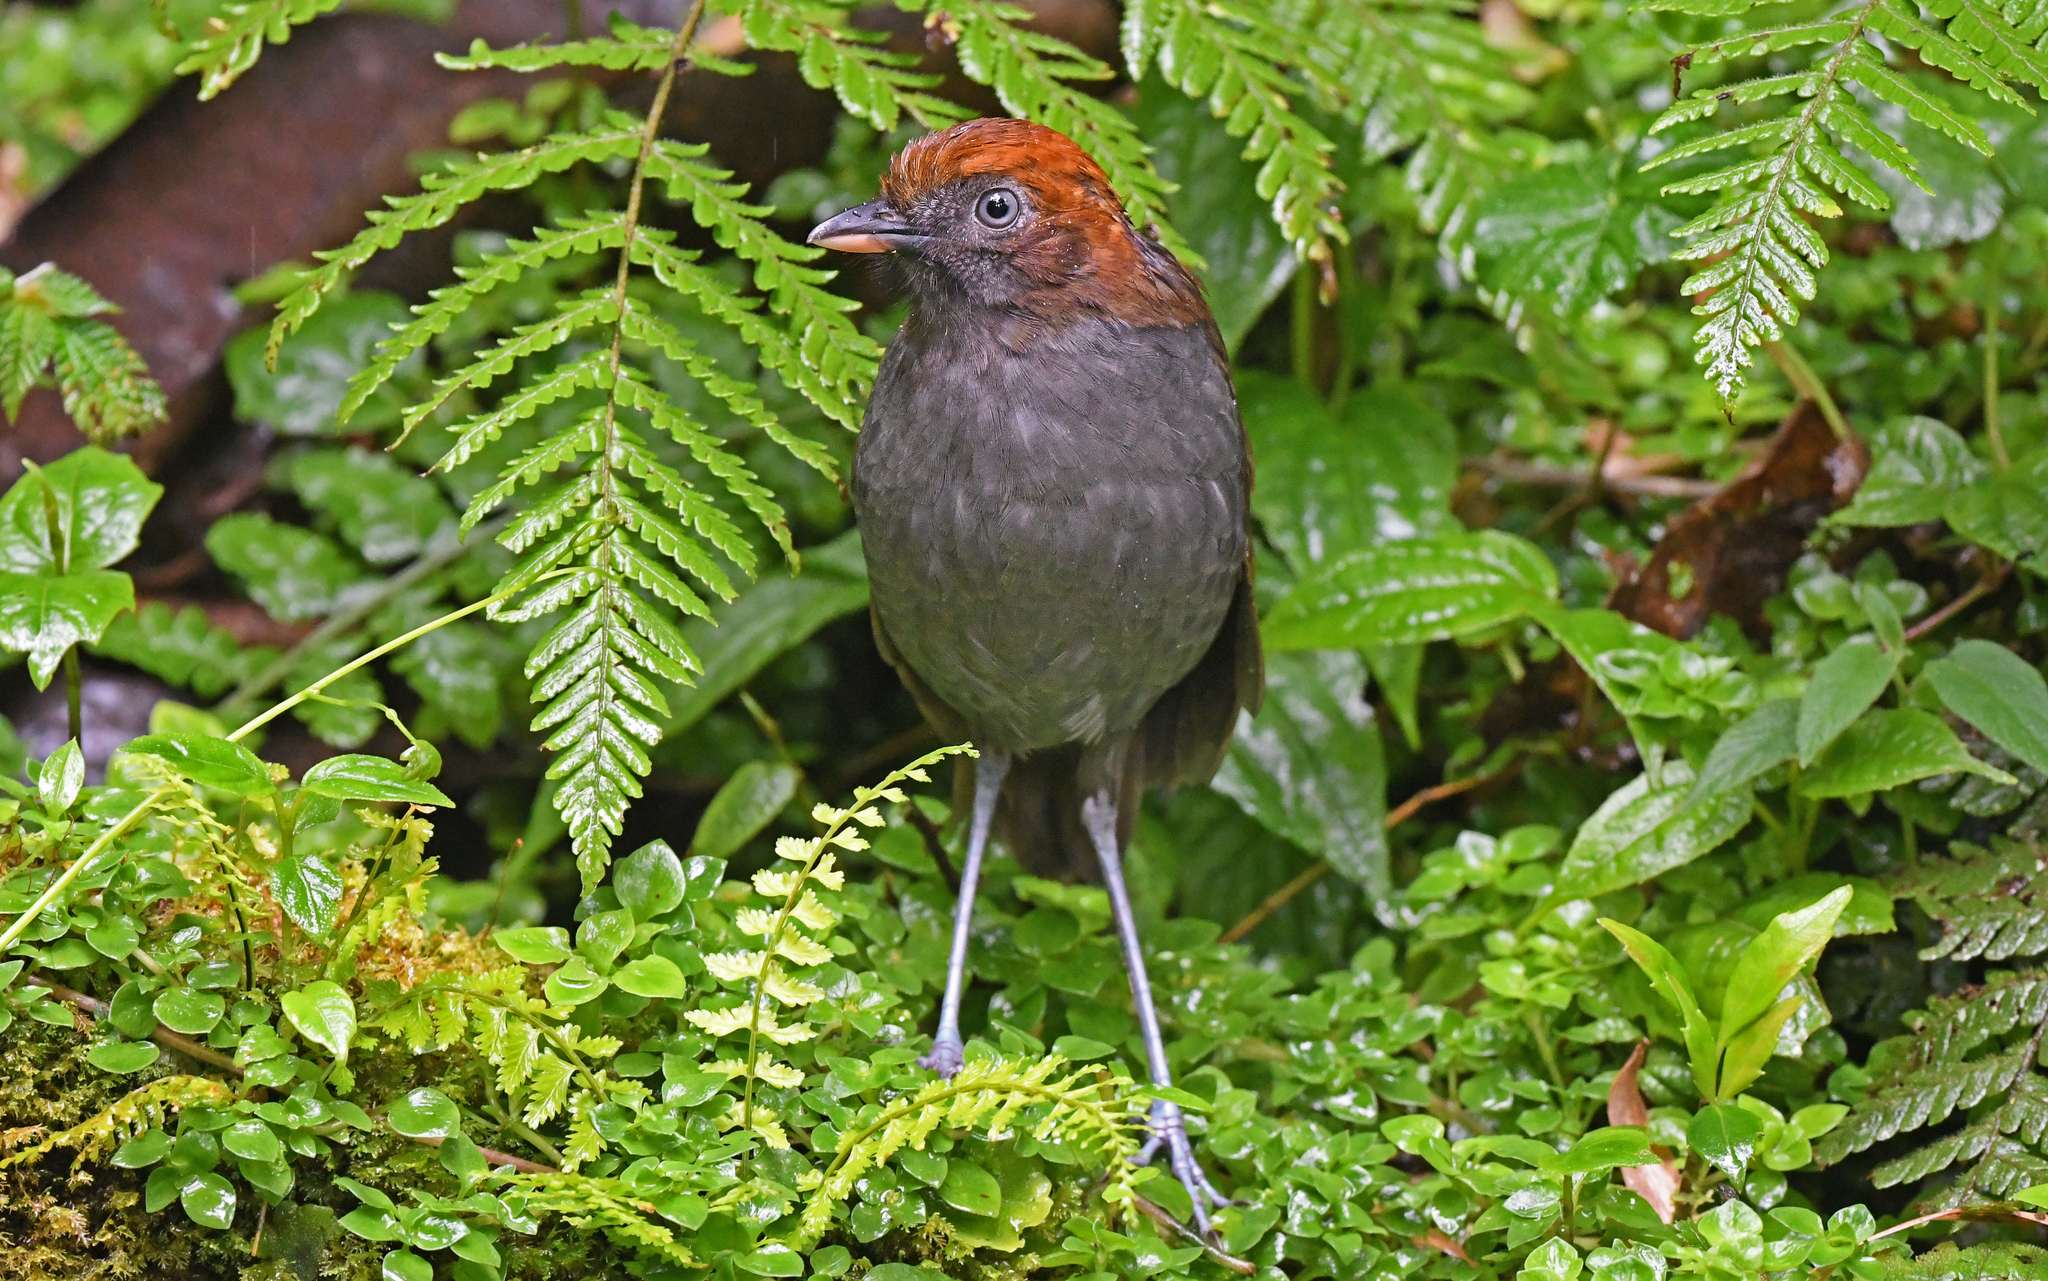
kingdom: Animalia
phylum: Chordata
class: Aves
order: Passeriformes
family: Grallariidae
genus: Grallaria
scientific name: Grallaria nuchalis
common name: Chestnut-naped antpitta
